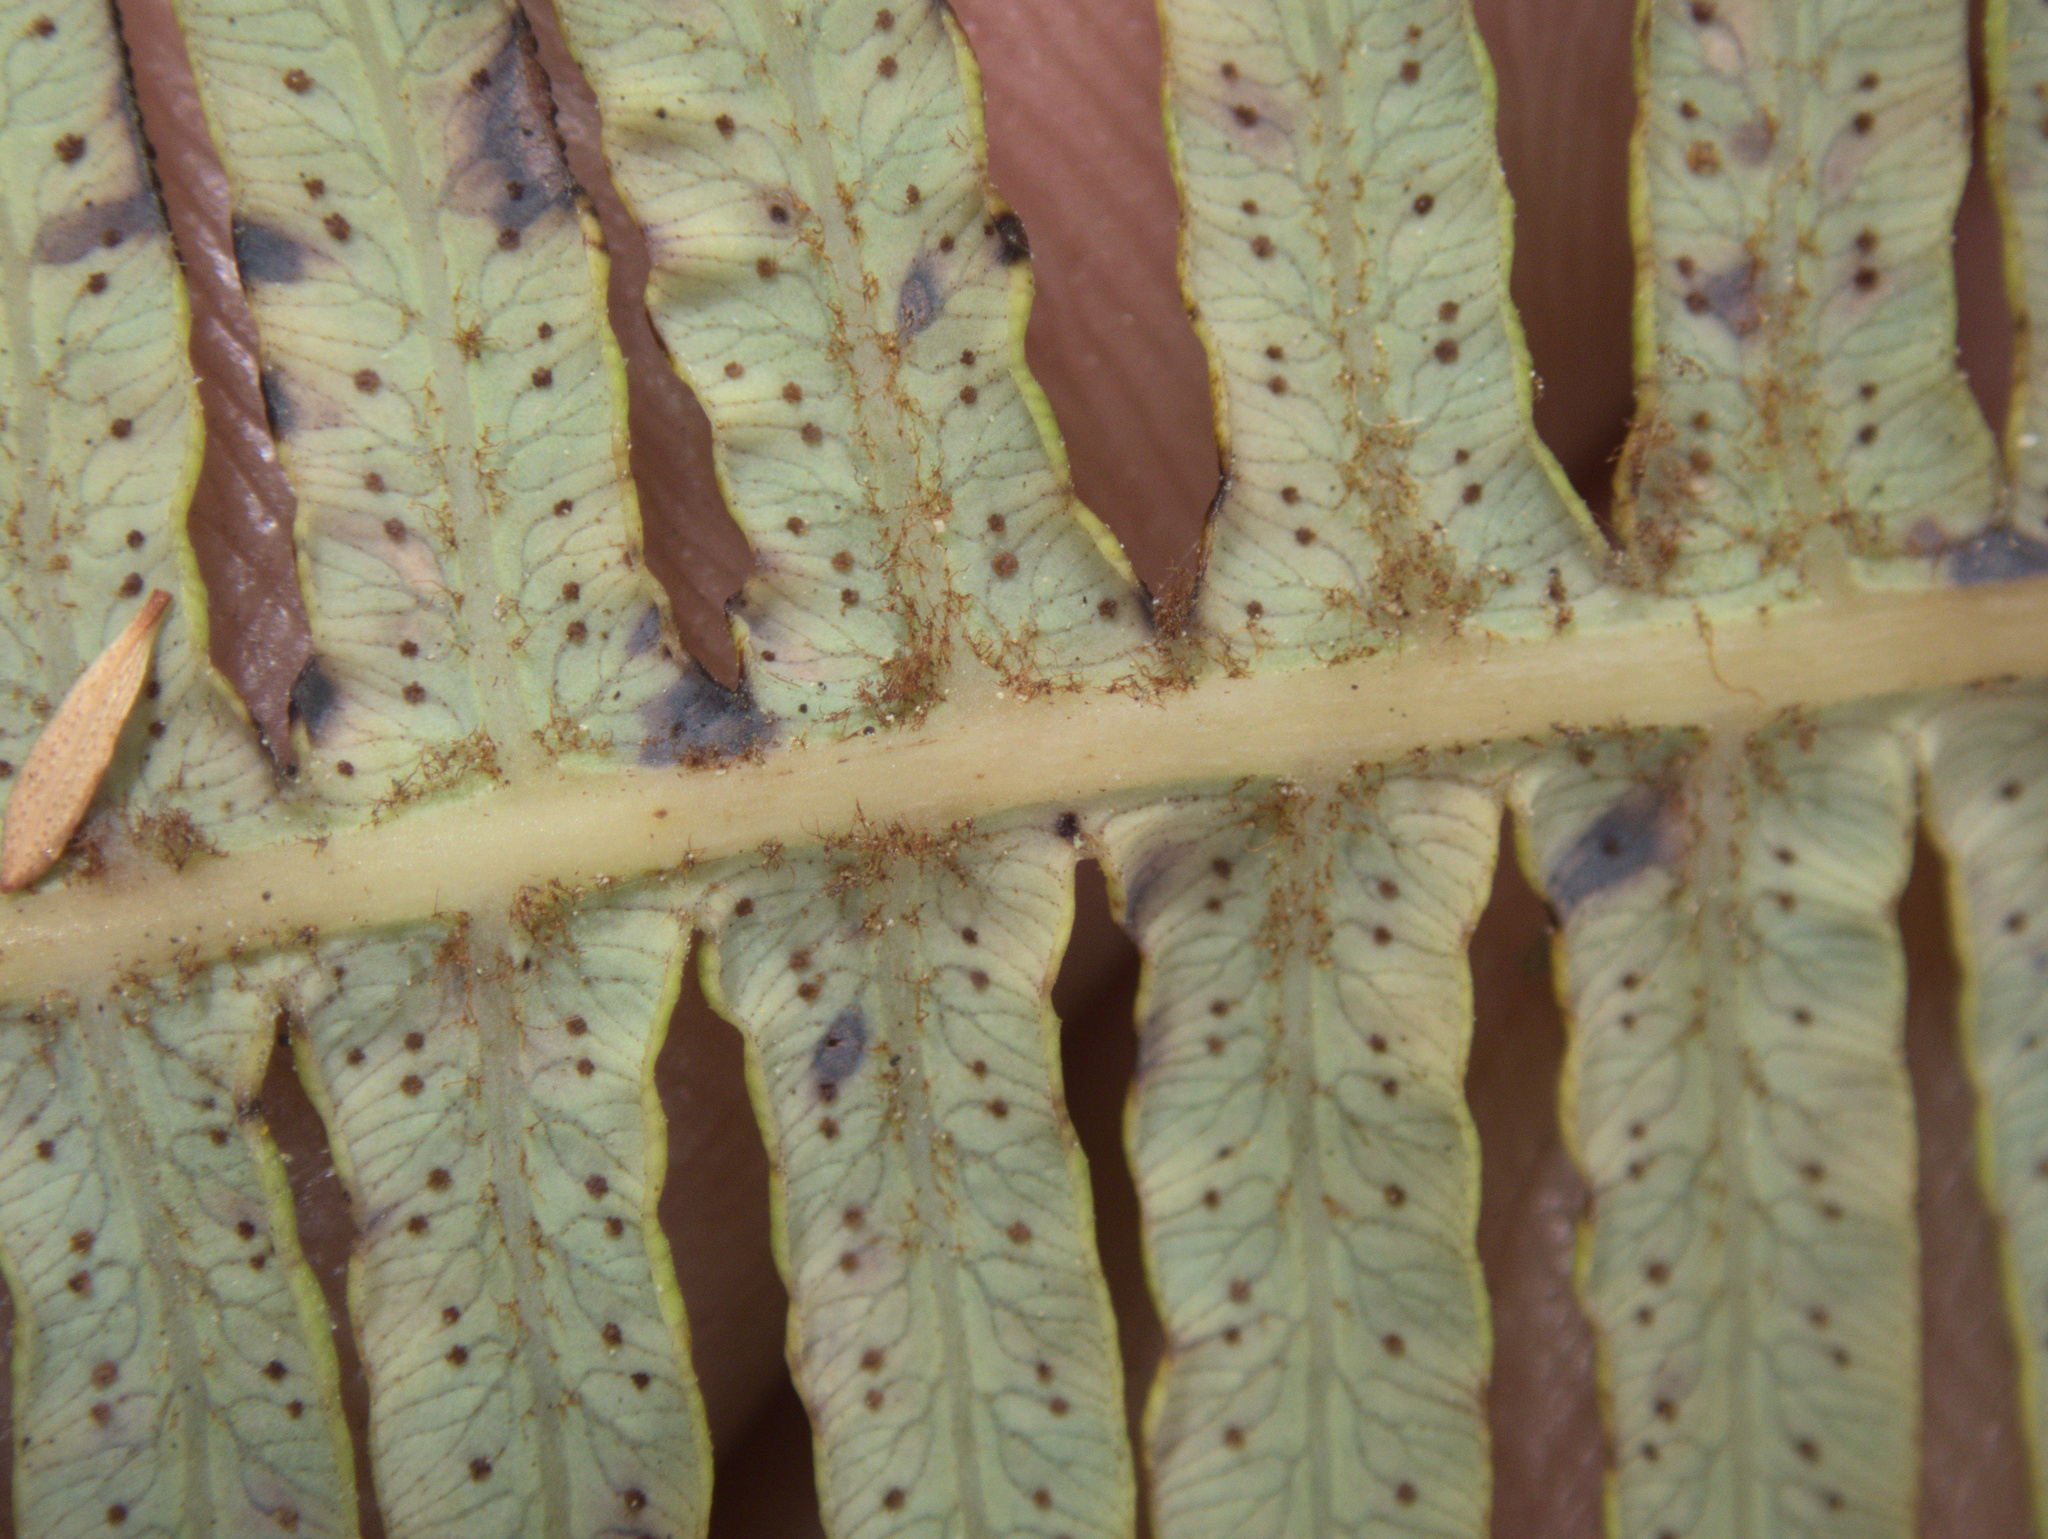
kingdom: Plantae
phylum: Tracheophyta
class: Polypodiopsida
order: Gleicheniales
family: Gleicheniaceae
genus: Dicranopteris
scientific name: Dicranopteris linearis
